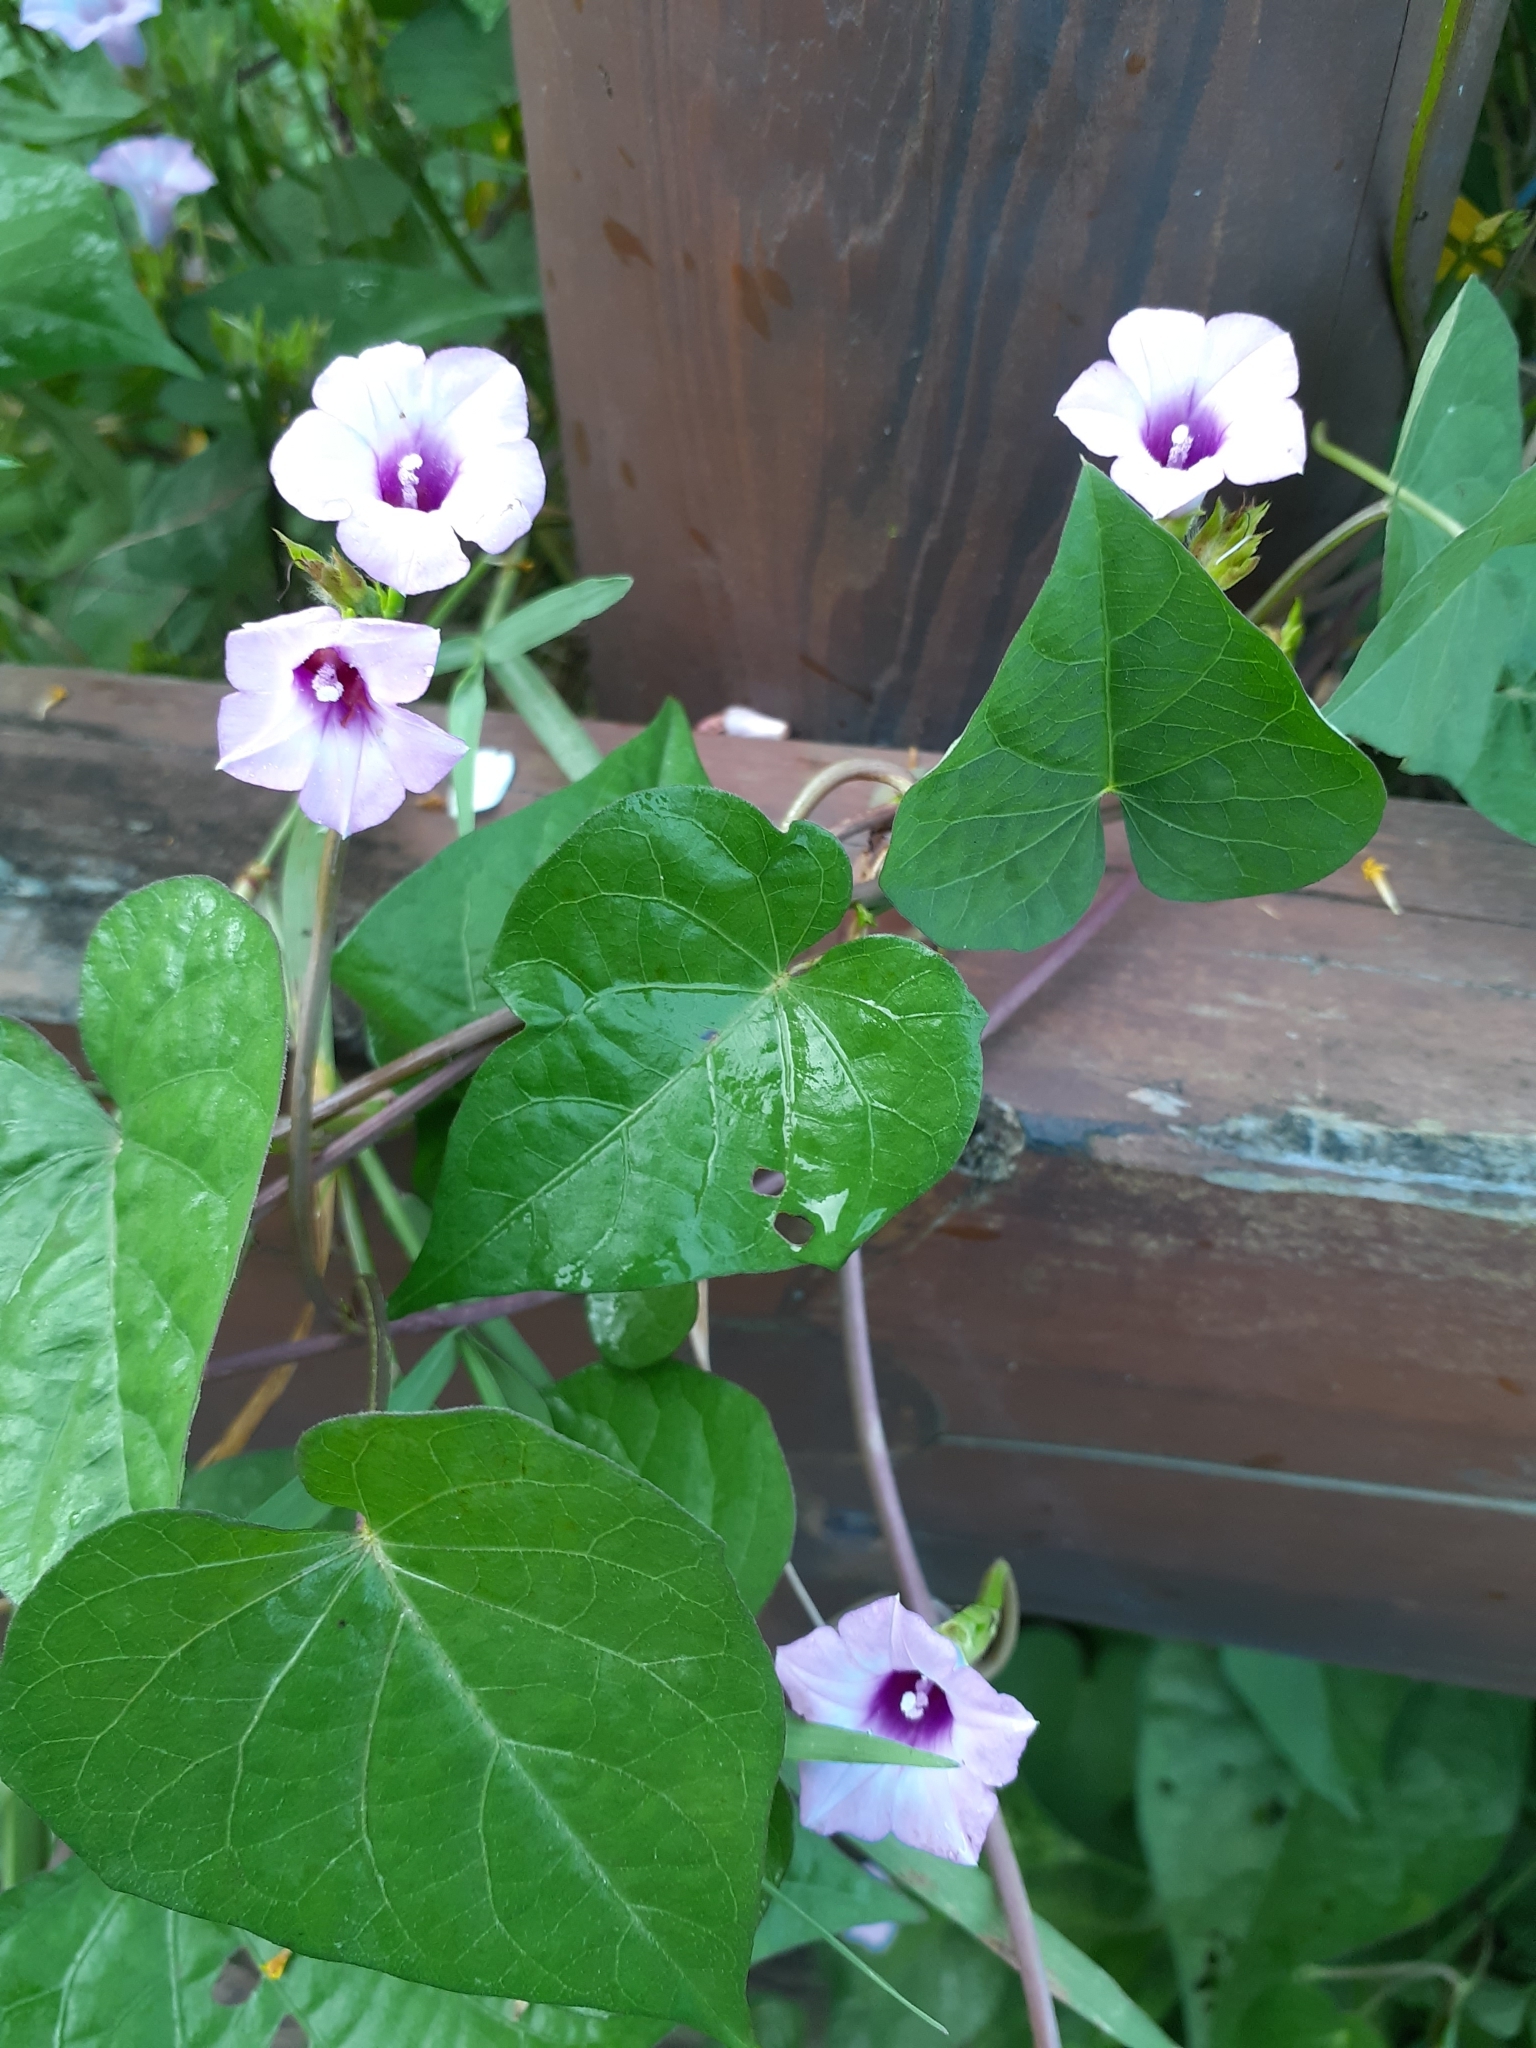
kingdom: Plantae
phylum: Tracheophyta
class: Magnoliopsida
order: Solanales
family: Convolvulaceae
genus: Ipomoea
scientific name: Ipomoea triloba
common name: Little-bell
